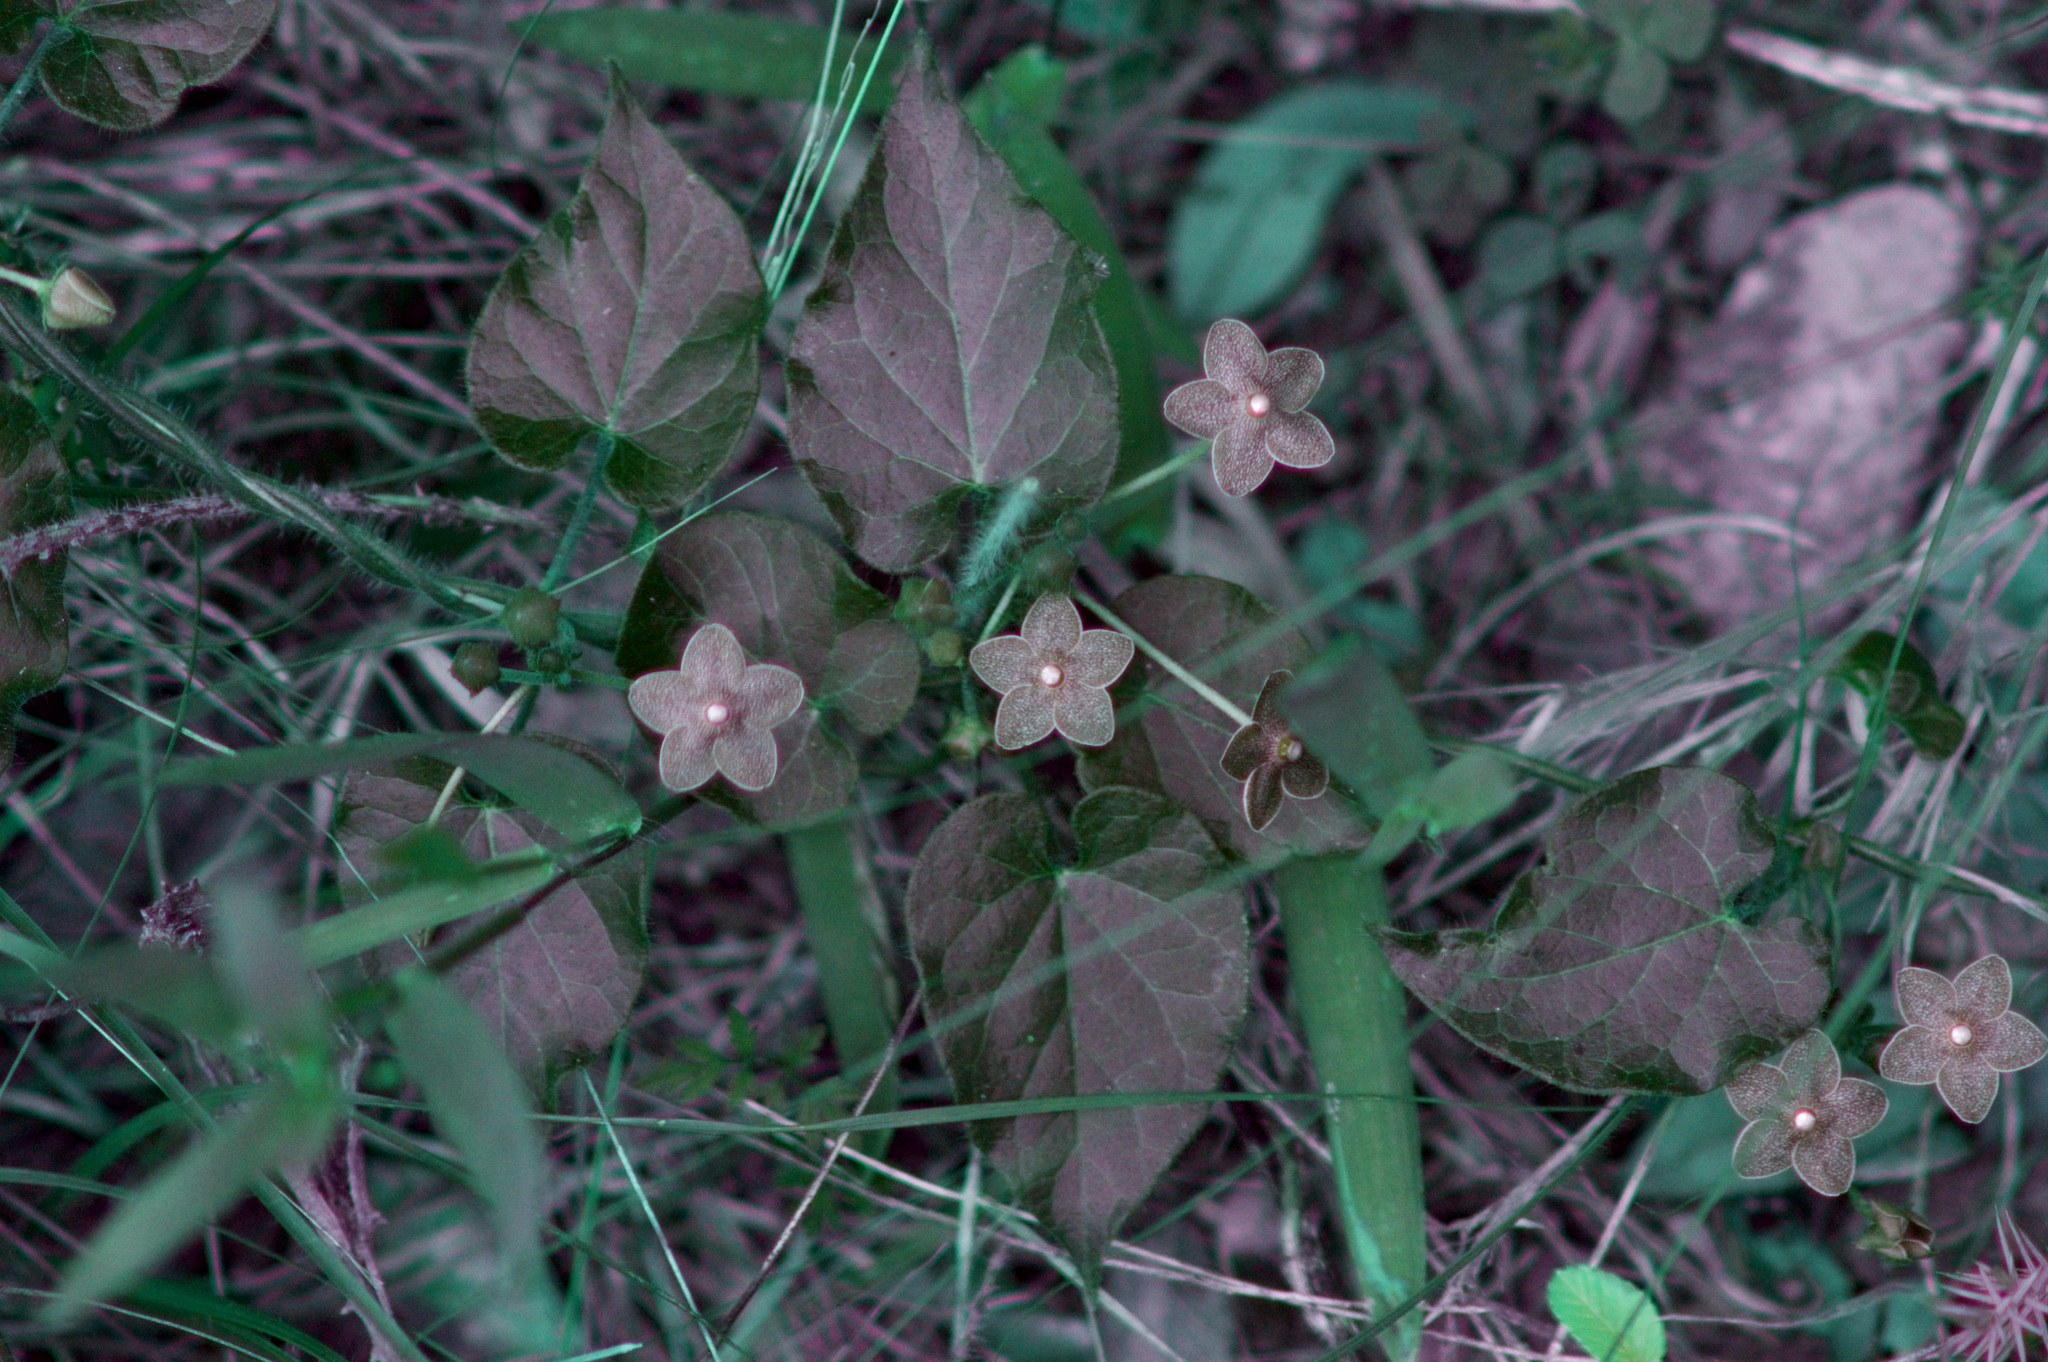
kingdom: Plantae
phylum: Tracheophyta
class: Magnoliopsida
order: Gentianales
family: Apocynaceae
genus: Dictyanthus
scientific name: Dictyanthus reticulatus
